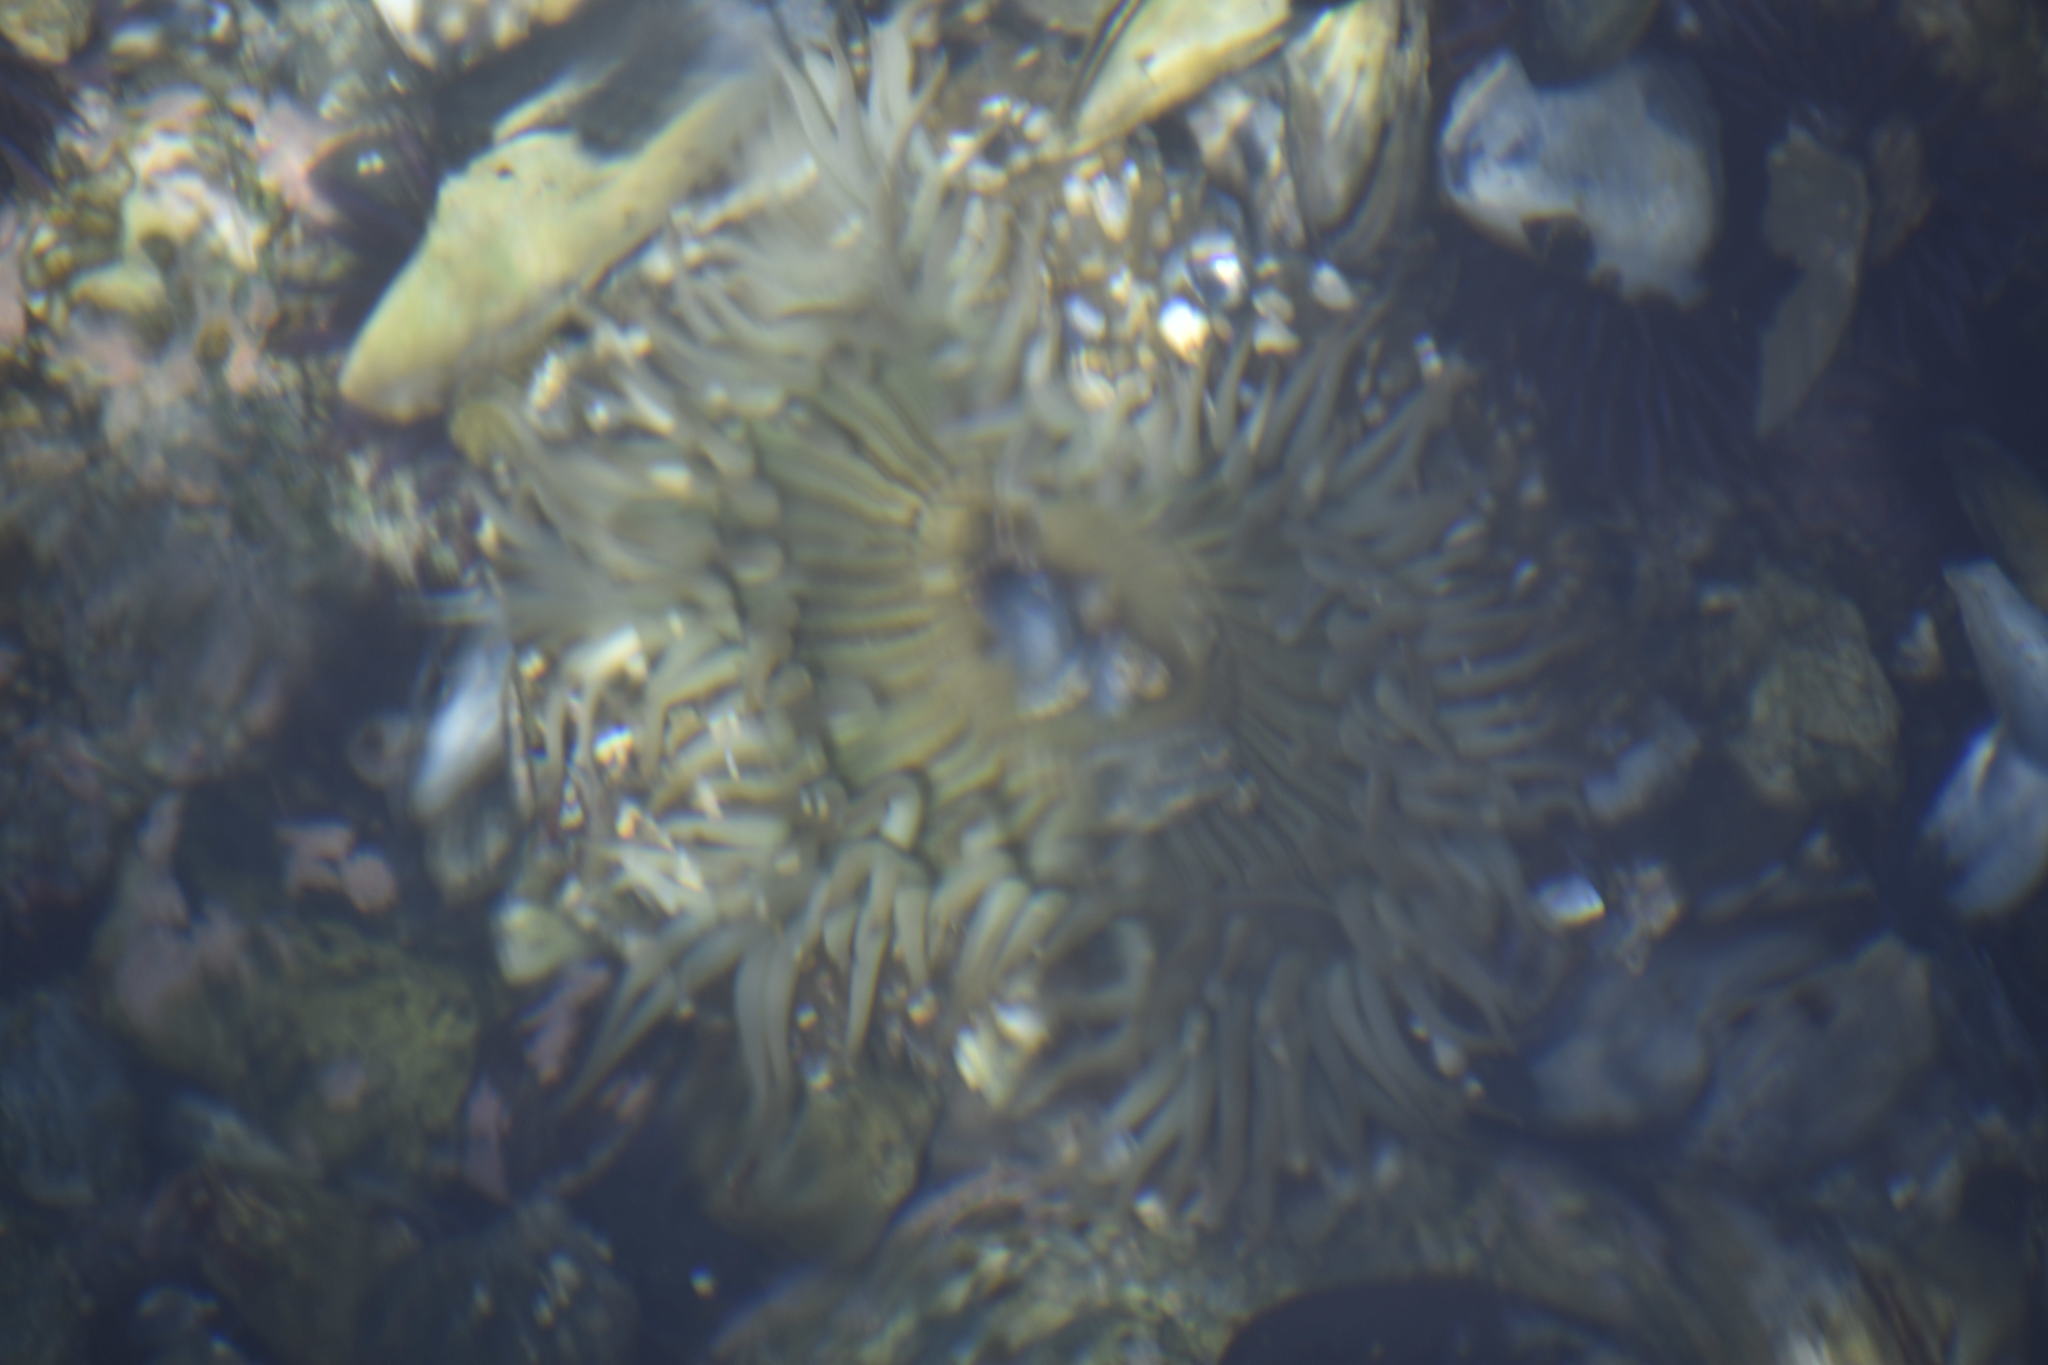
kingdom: Animalia
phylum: Cnidaria
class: Anthozoa
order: Actiniaria
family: Actiniidae
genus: Anthopleura
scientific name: Anthopleura sola
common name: Sun anemone
